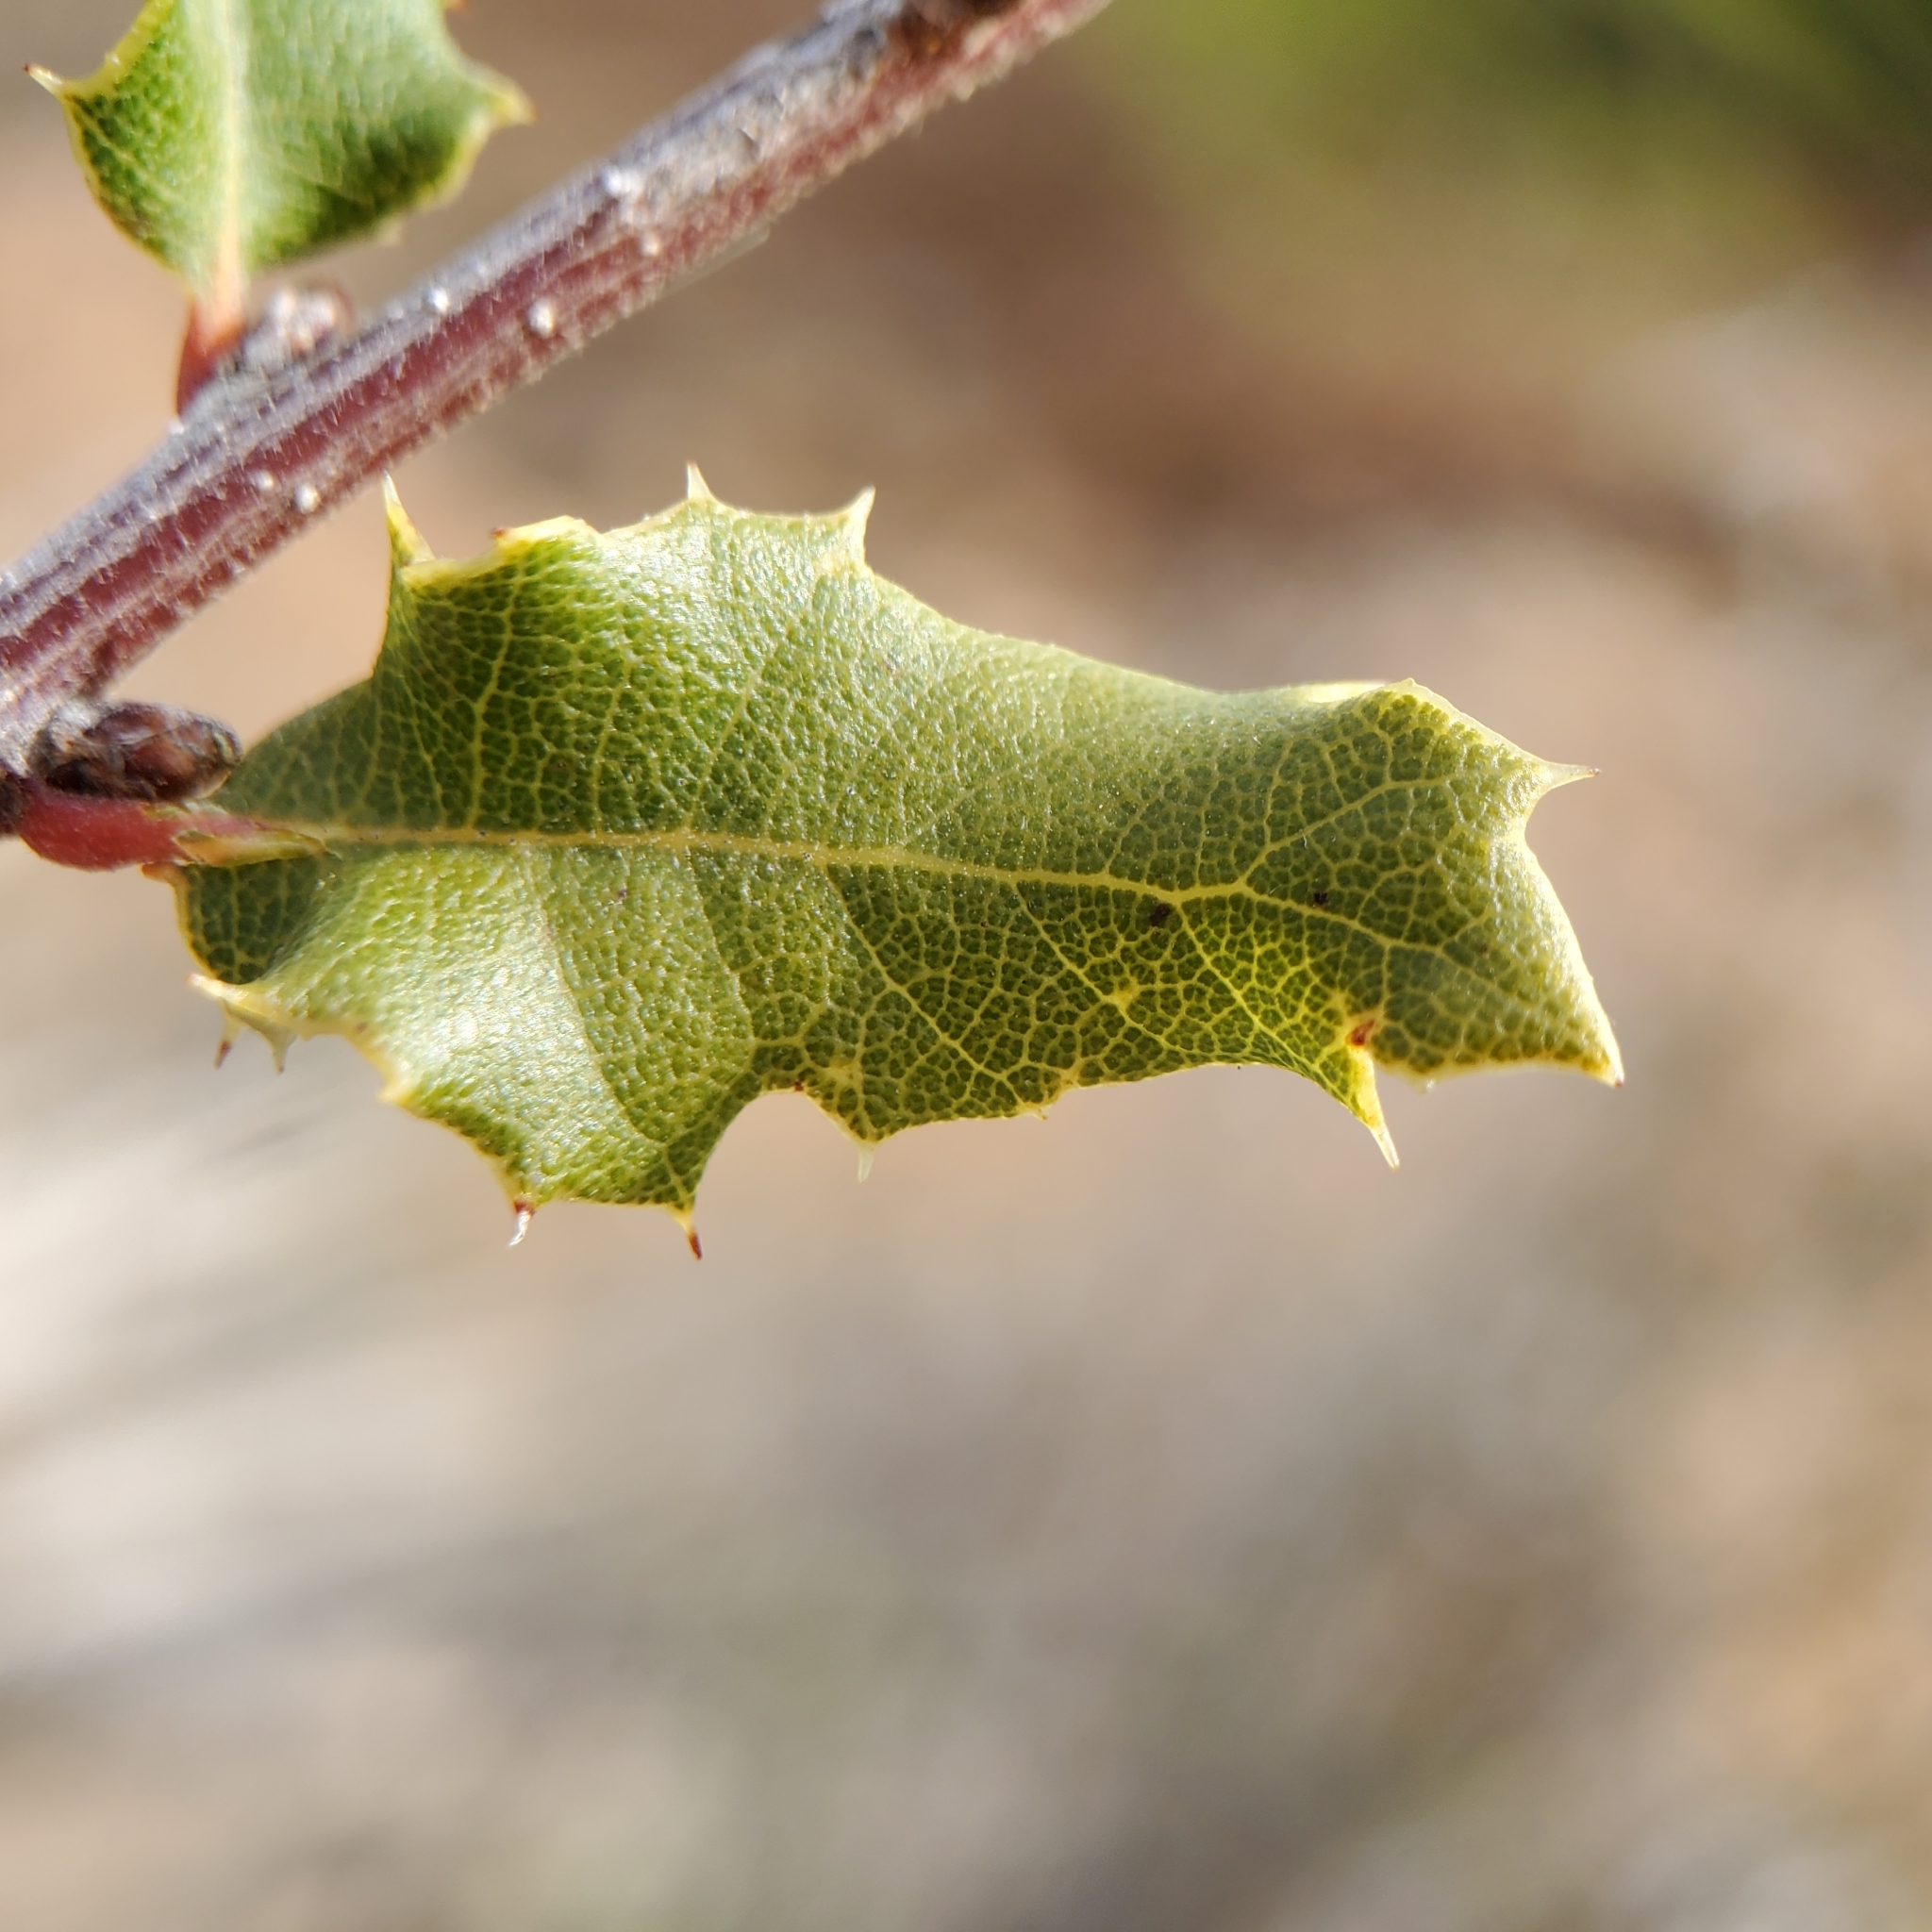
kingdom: Plantae
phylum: Tracheophyta
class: Magnoliopsida
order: Fagales
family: Fagaceae
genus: Quercus
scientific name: Quercus berberidifolia
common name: California scrub oak
